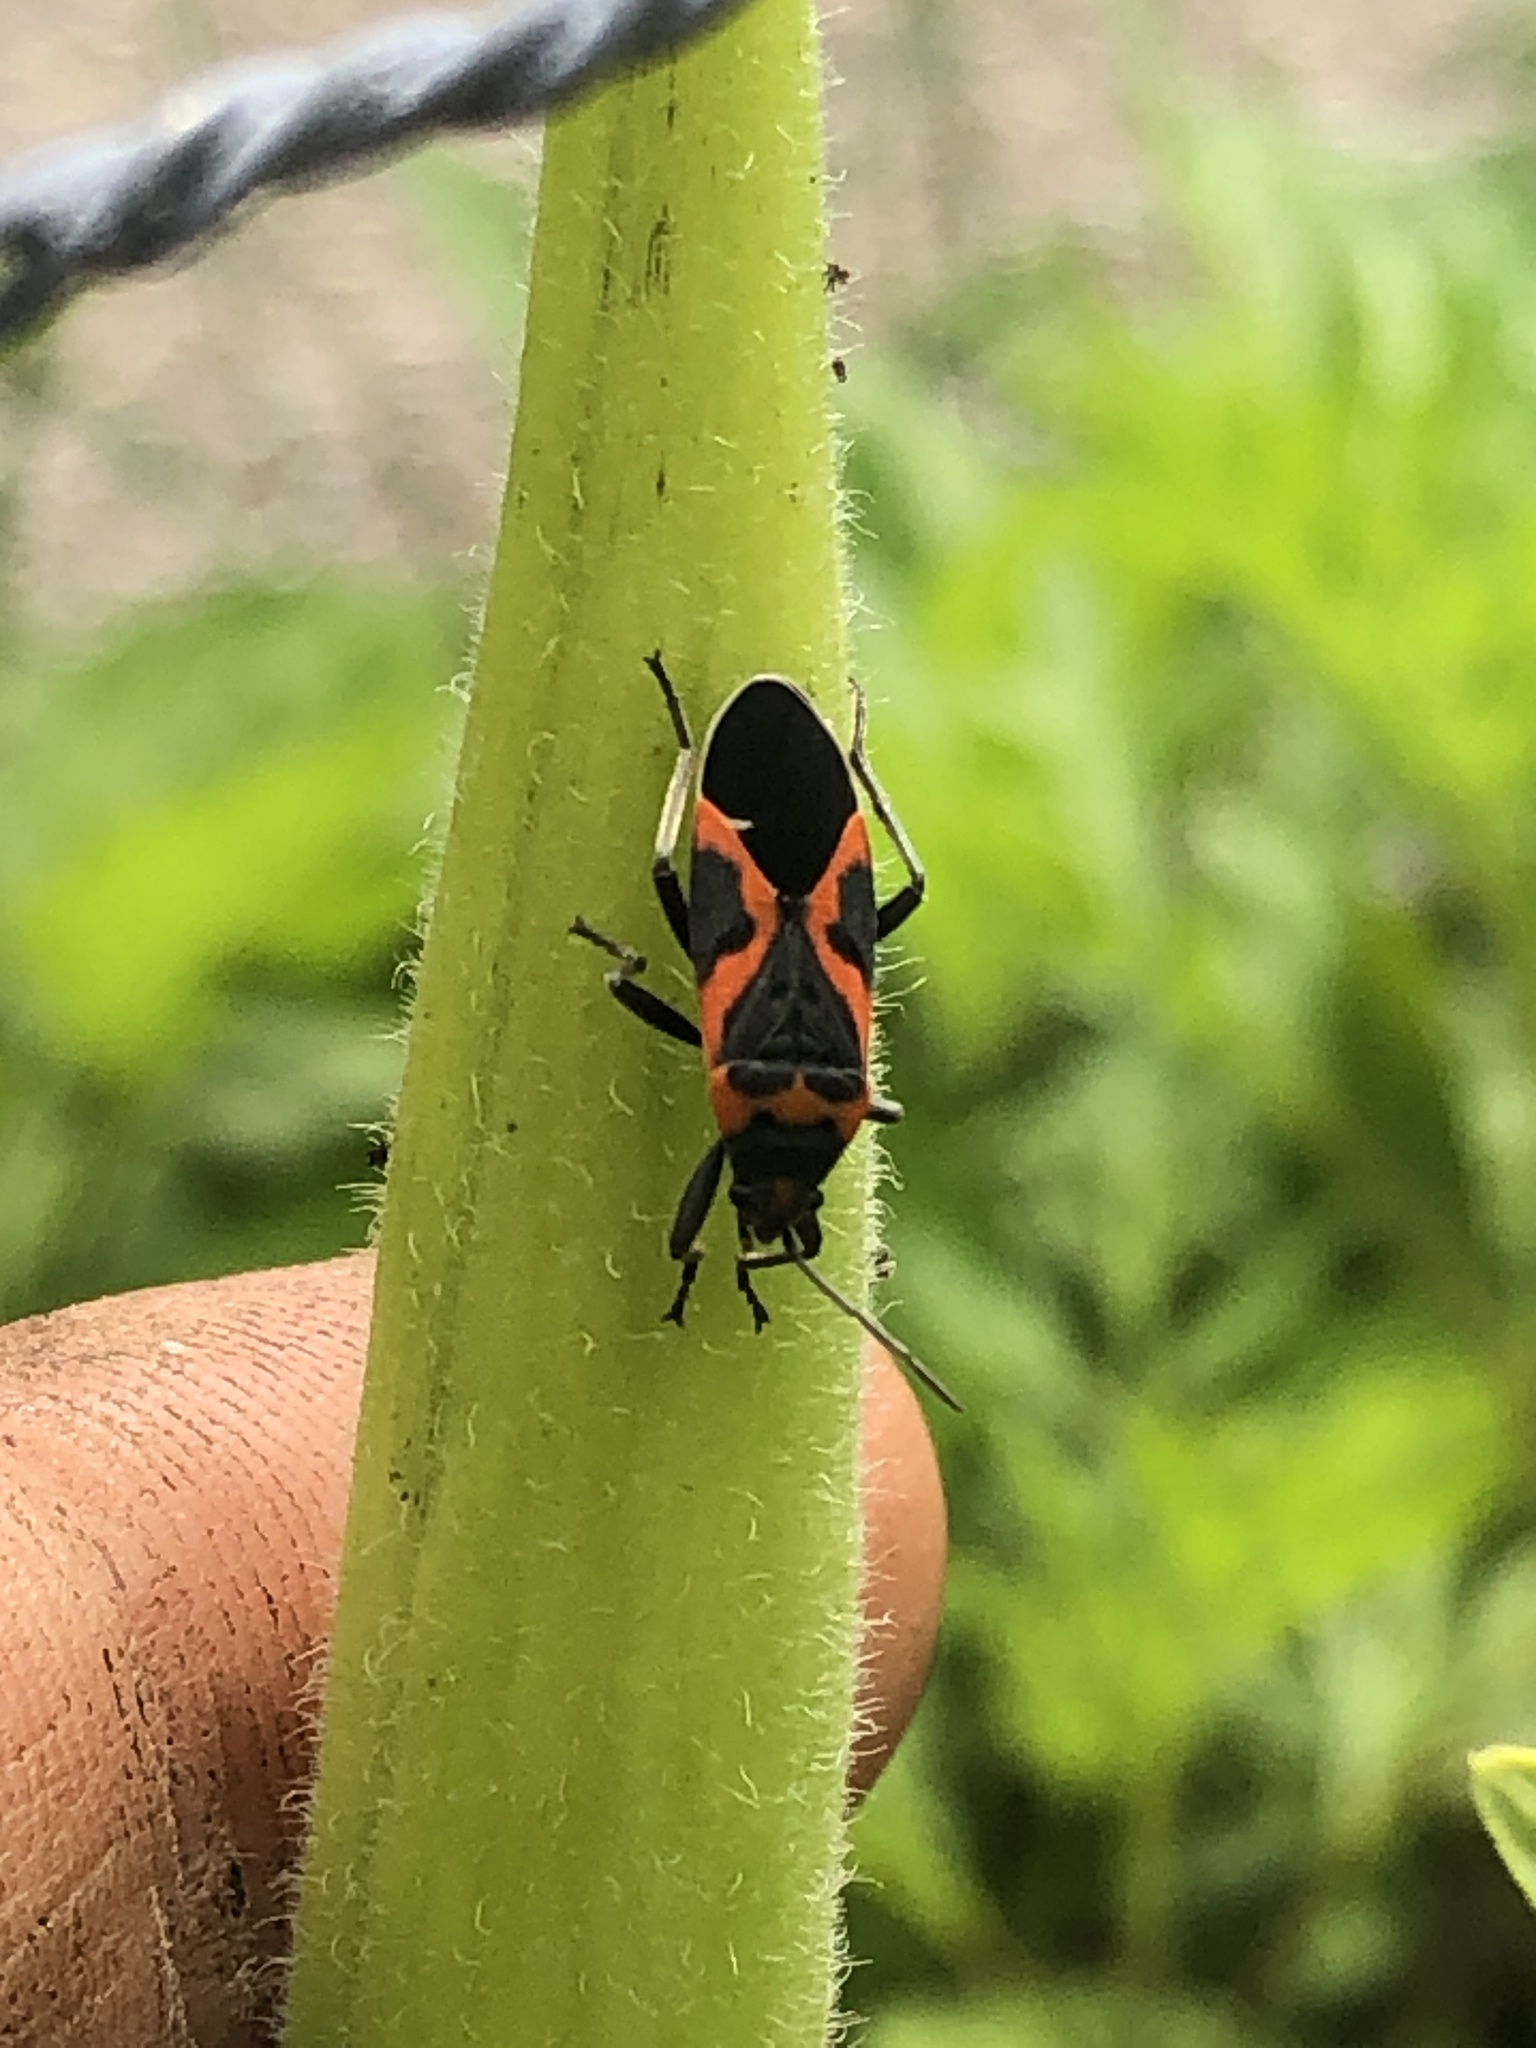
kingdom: Animalia
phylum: Arthropoda
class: Insecta
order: Hemiptera
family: Lygaeidae
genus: Lygaeus
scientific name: Lygaeus kalmii
